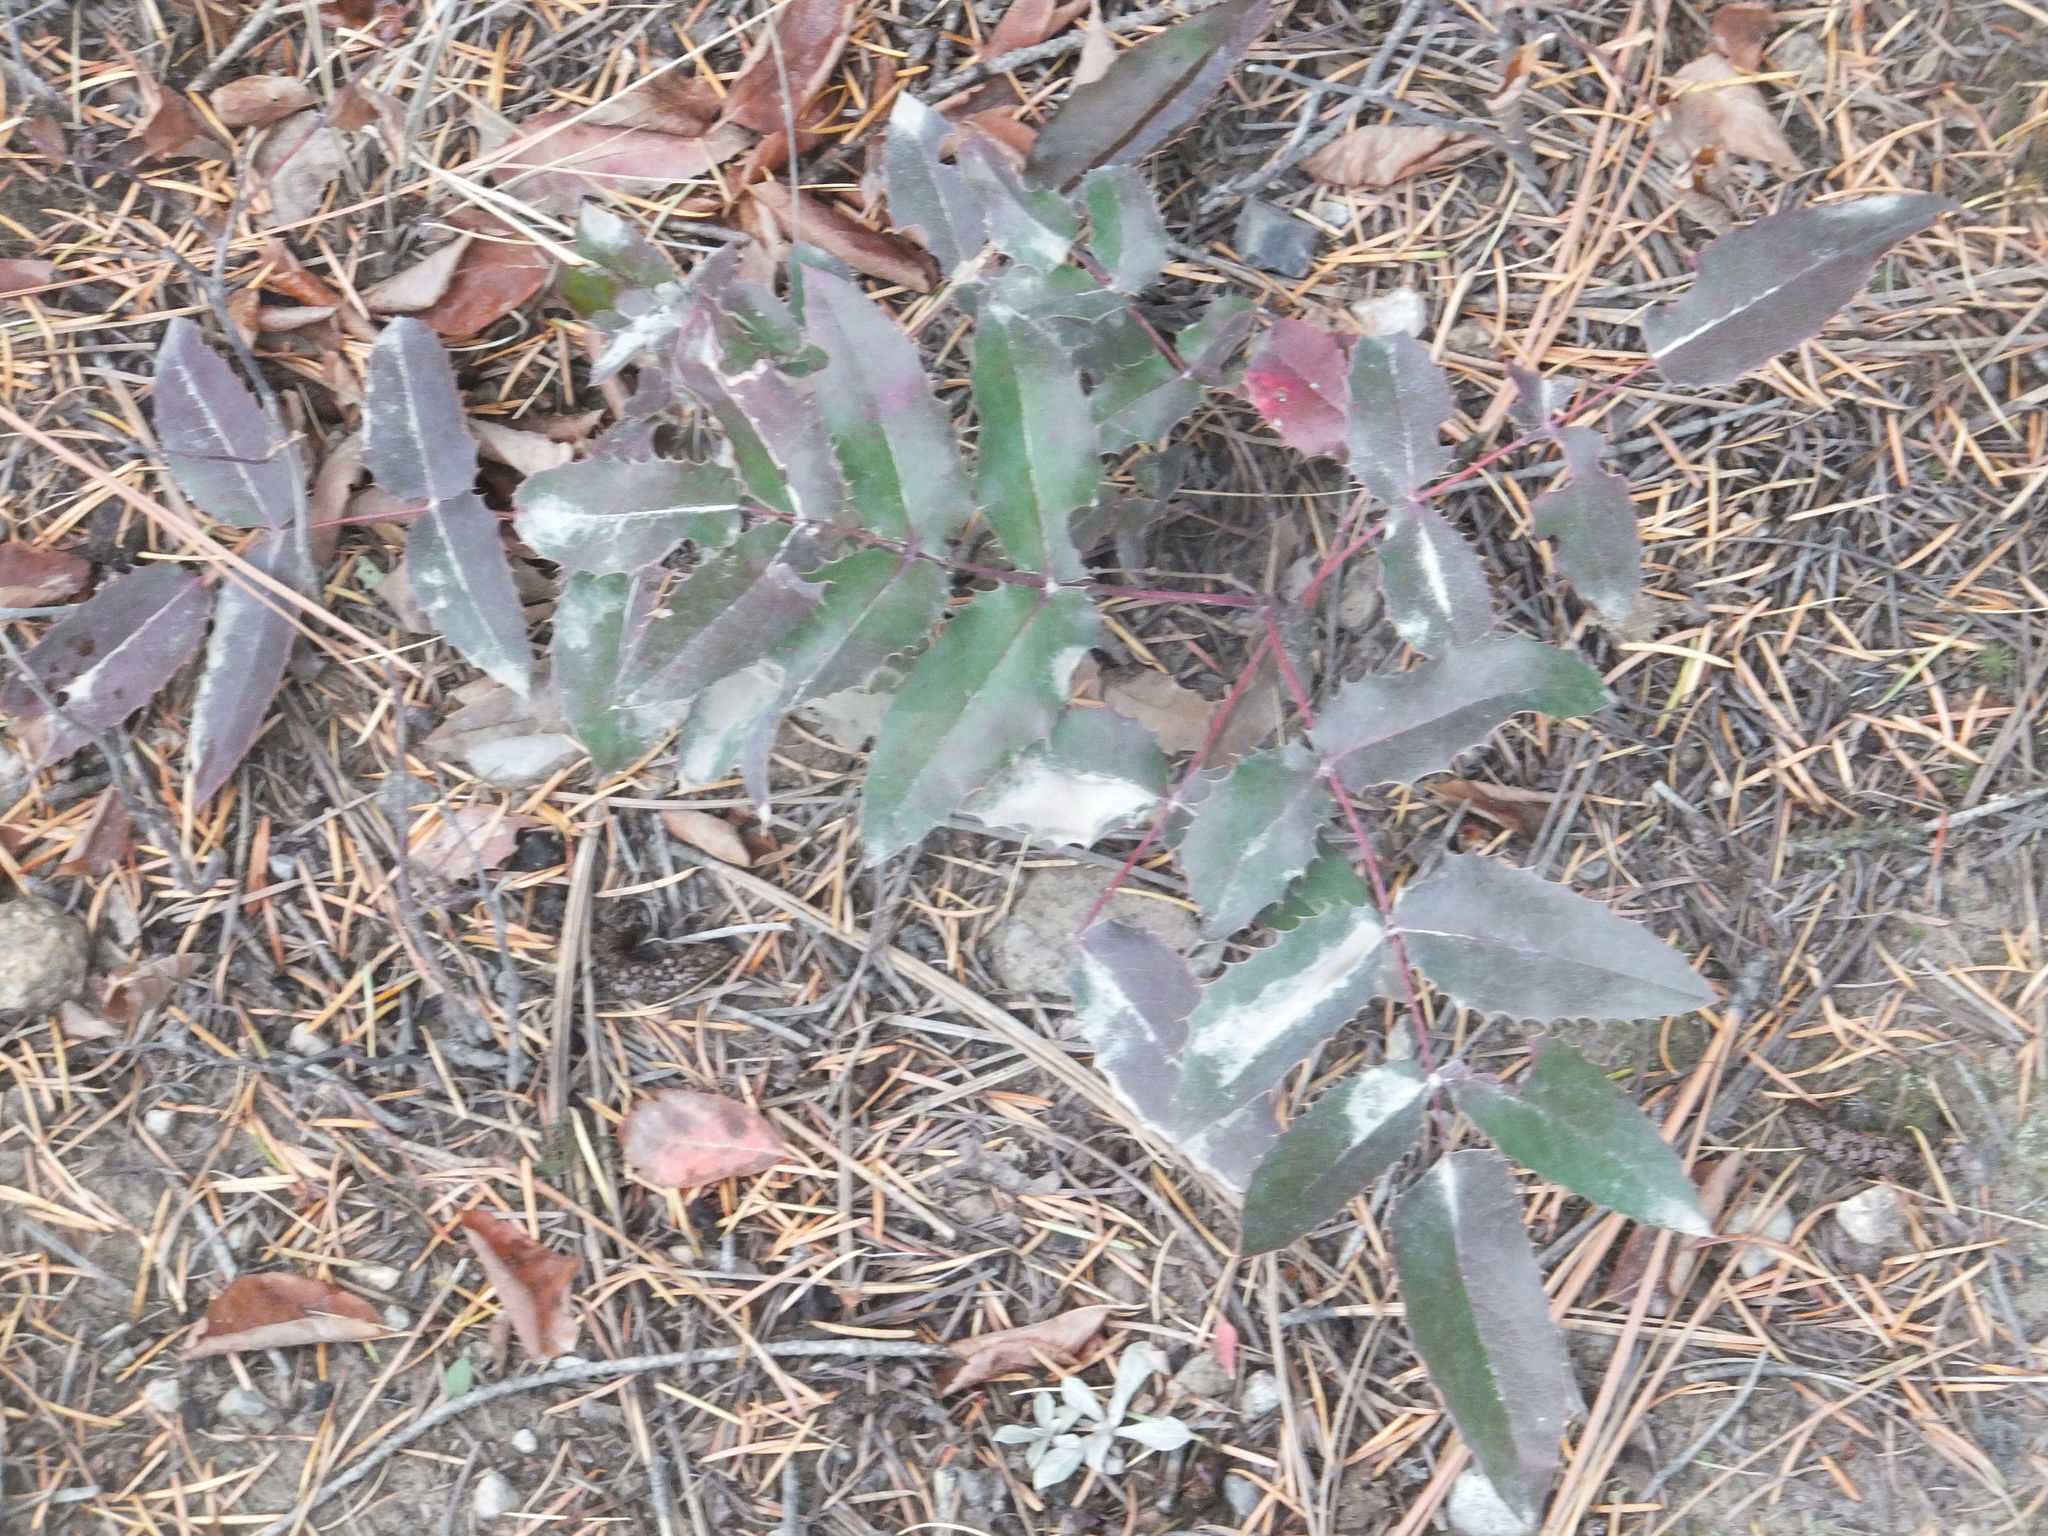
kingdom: Plantae
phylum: Tracheophyta
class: Magnoliopsida
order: Ranunculales
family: Berberidaceae
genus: Mahonia
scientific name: Mahonia aquifolium
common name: Oregon-grape
